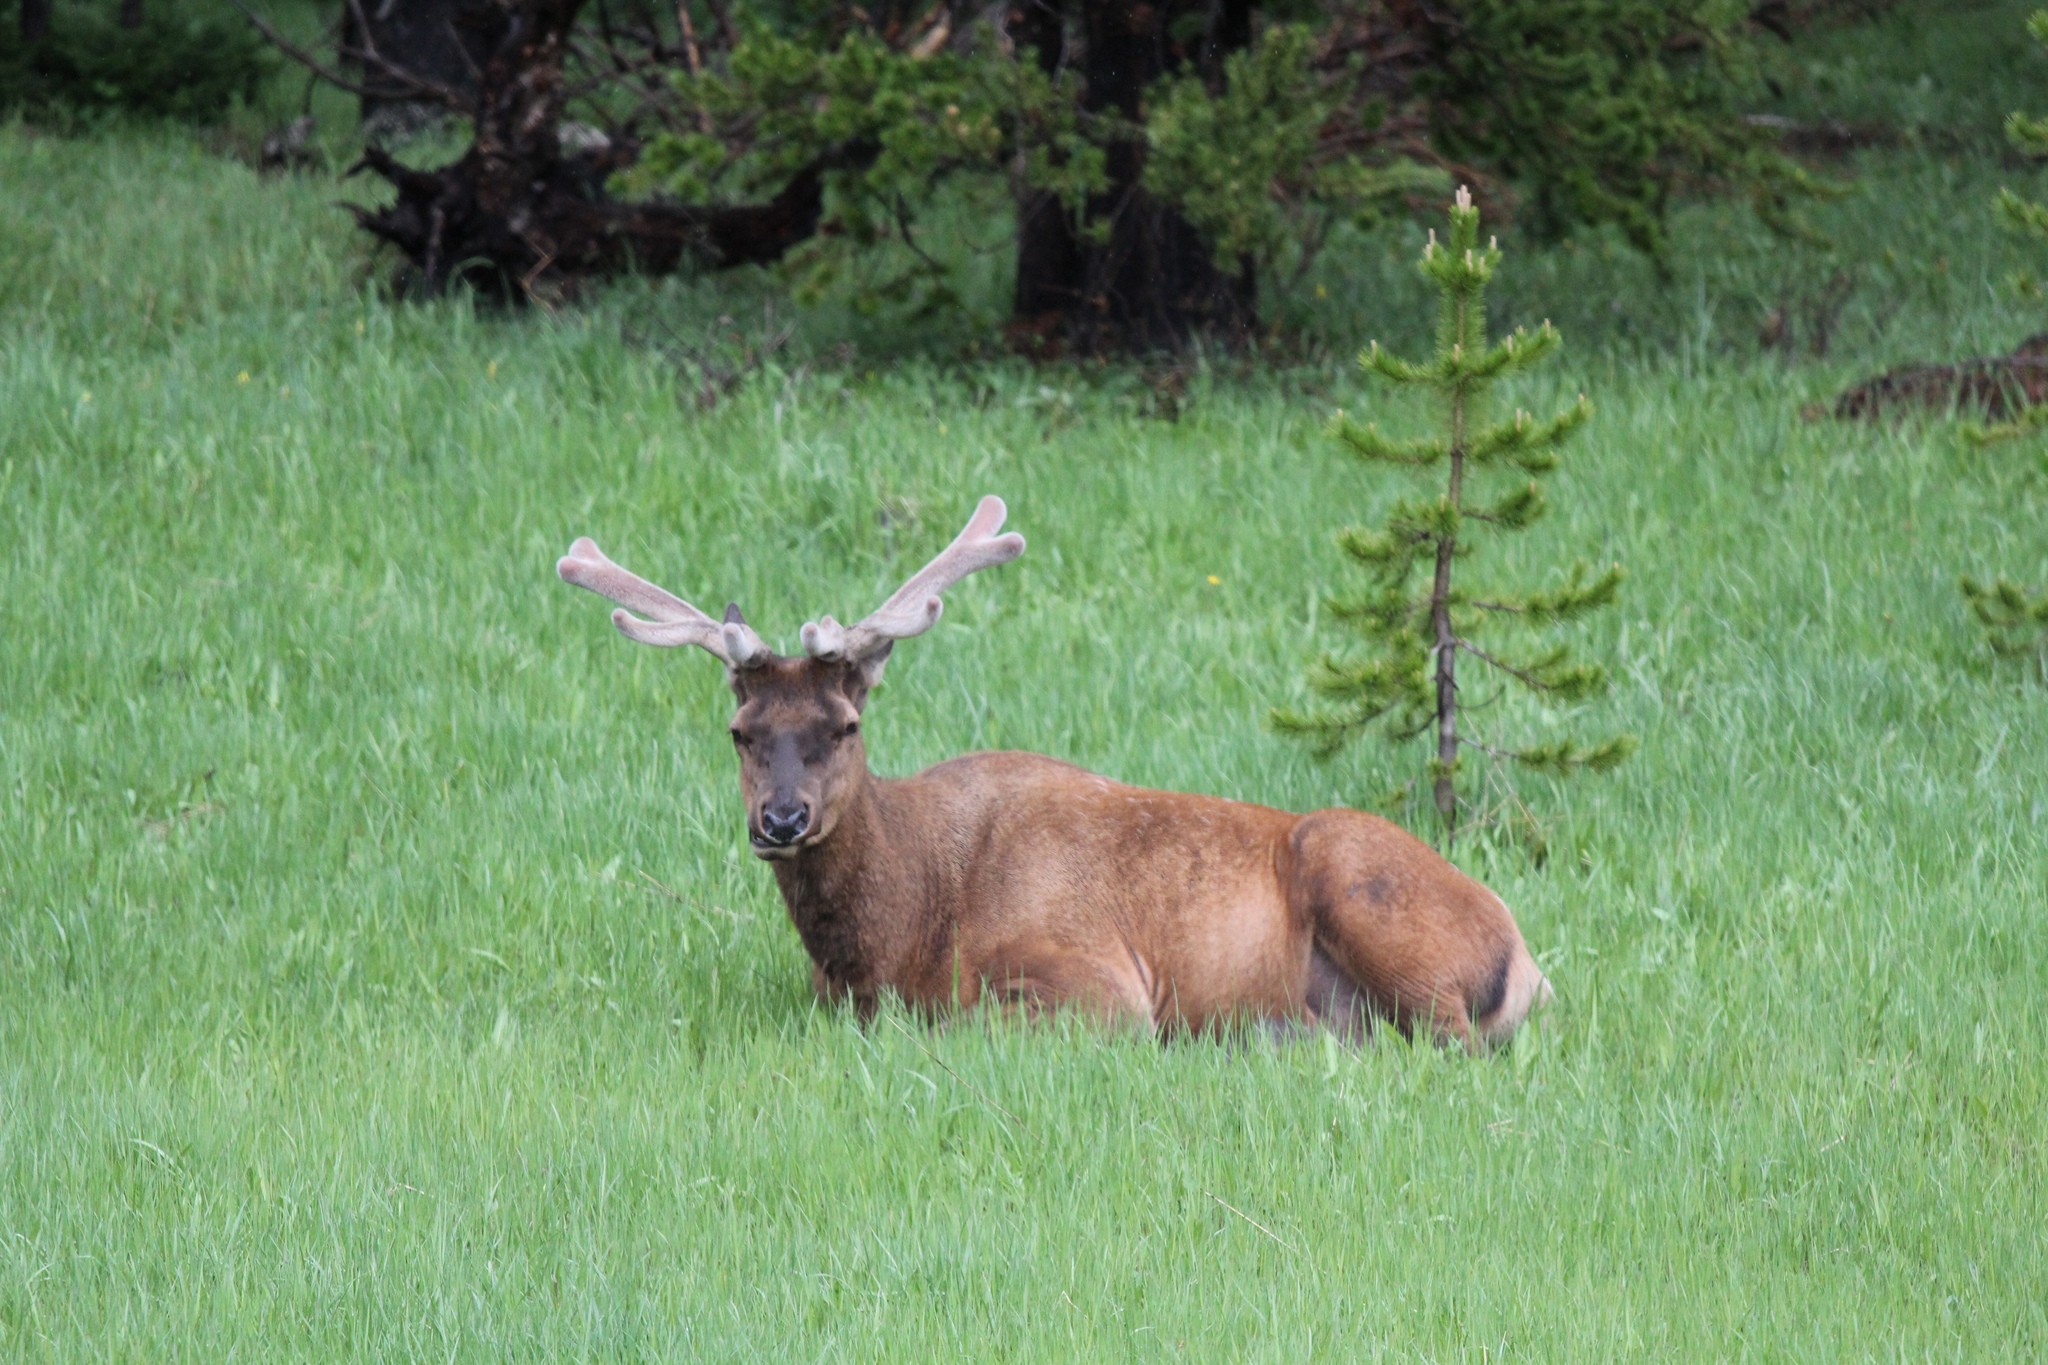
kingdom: Animalia
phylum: Chordata
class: Mammalia
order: Artiodactyla
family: Cervidae
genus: Cervus
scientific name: Cervus elaphus
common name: Red deer
